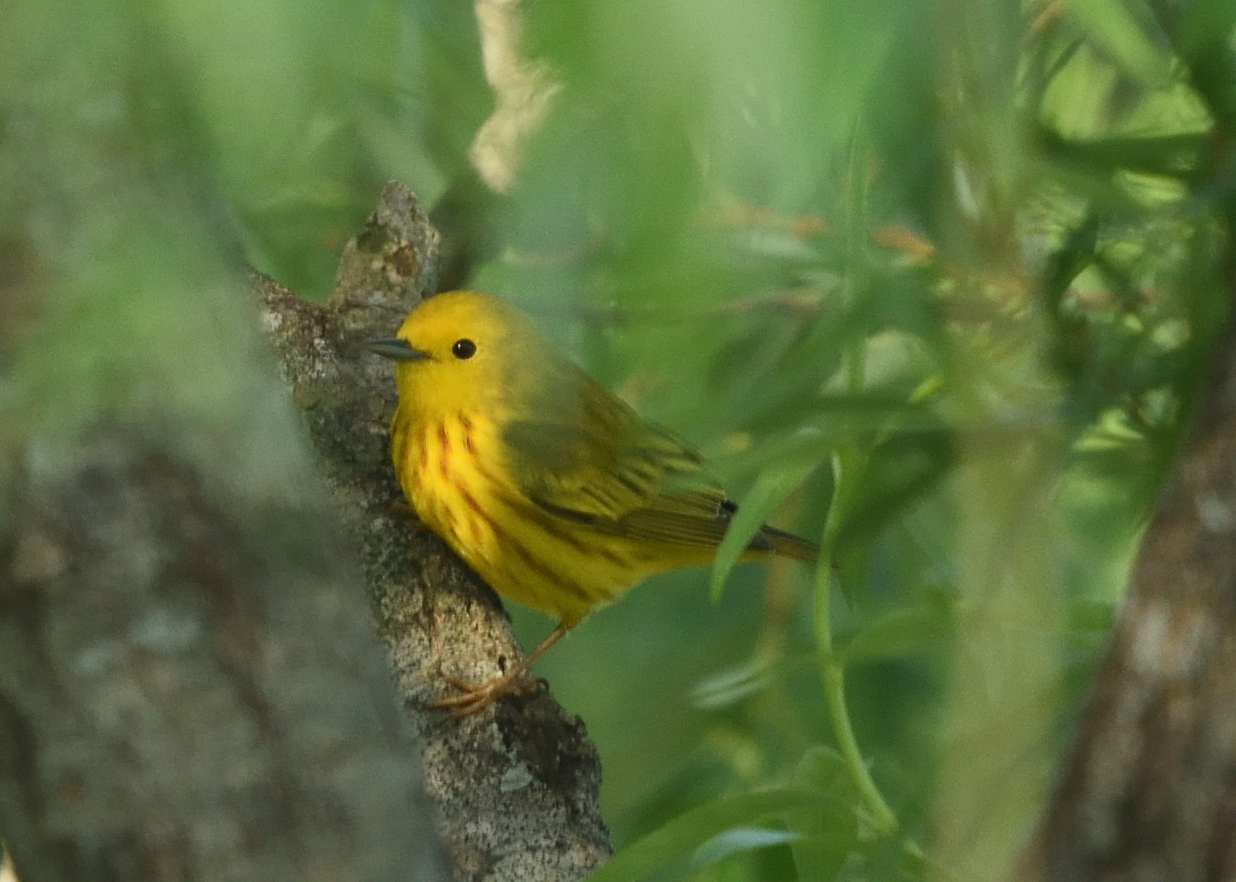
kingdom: Animalia
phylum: Chordata
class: Aves
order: Passeriformes
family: Parulidae
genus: Setophaga
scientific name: Setophaga petechia
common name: Yellow warbler
